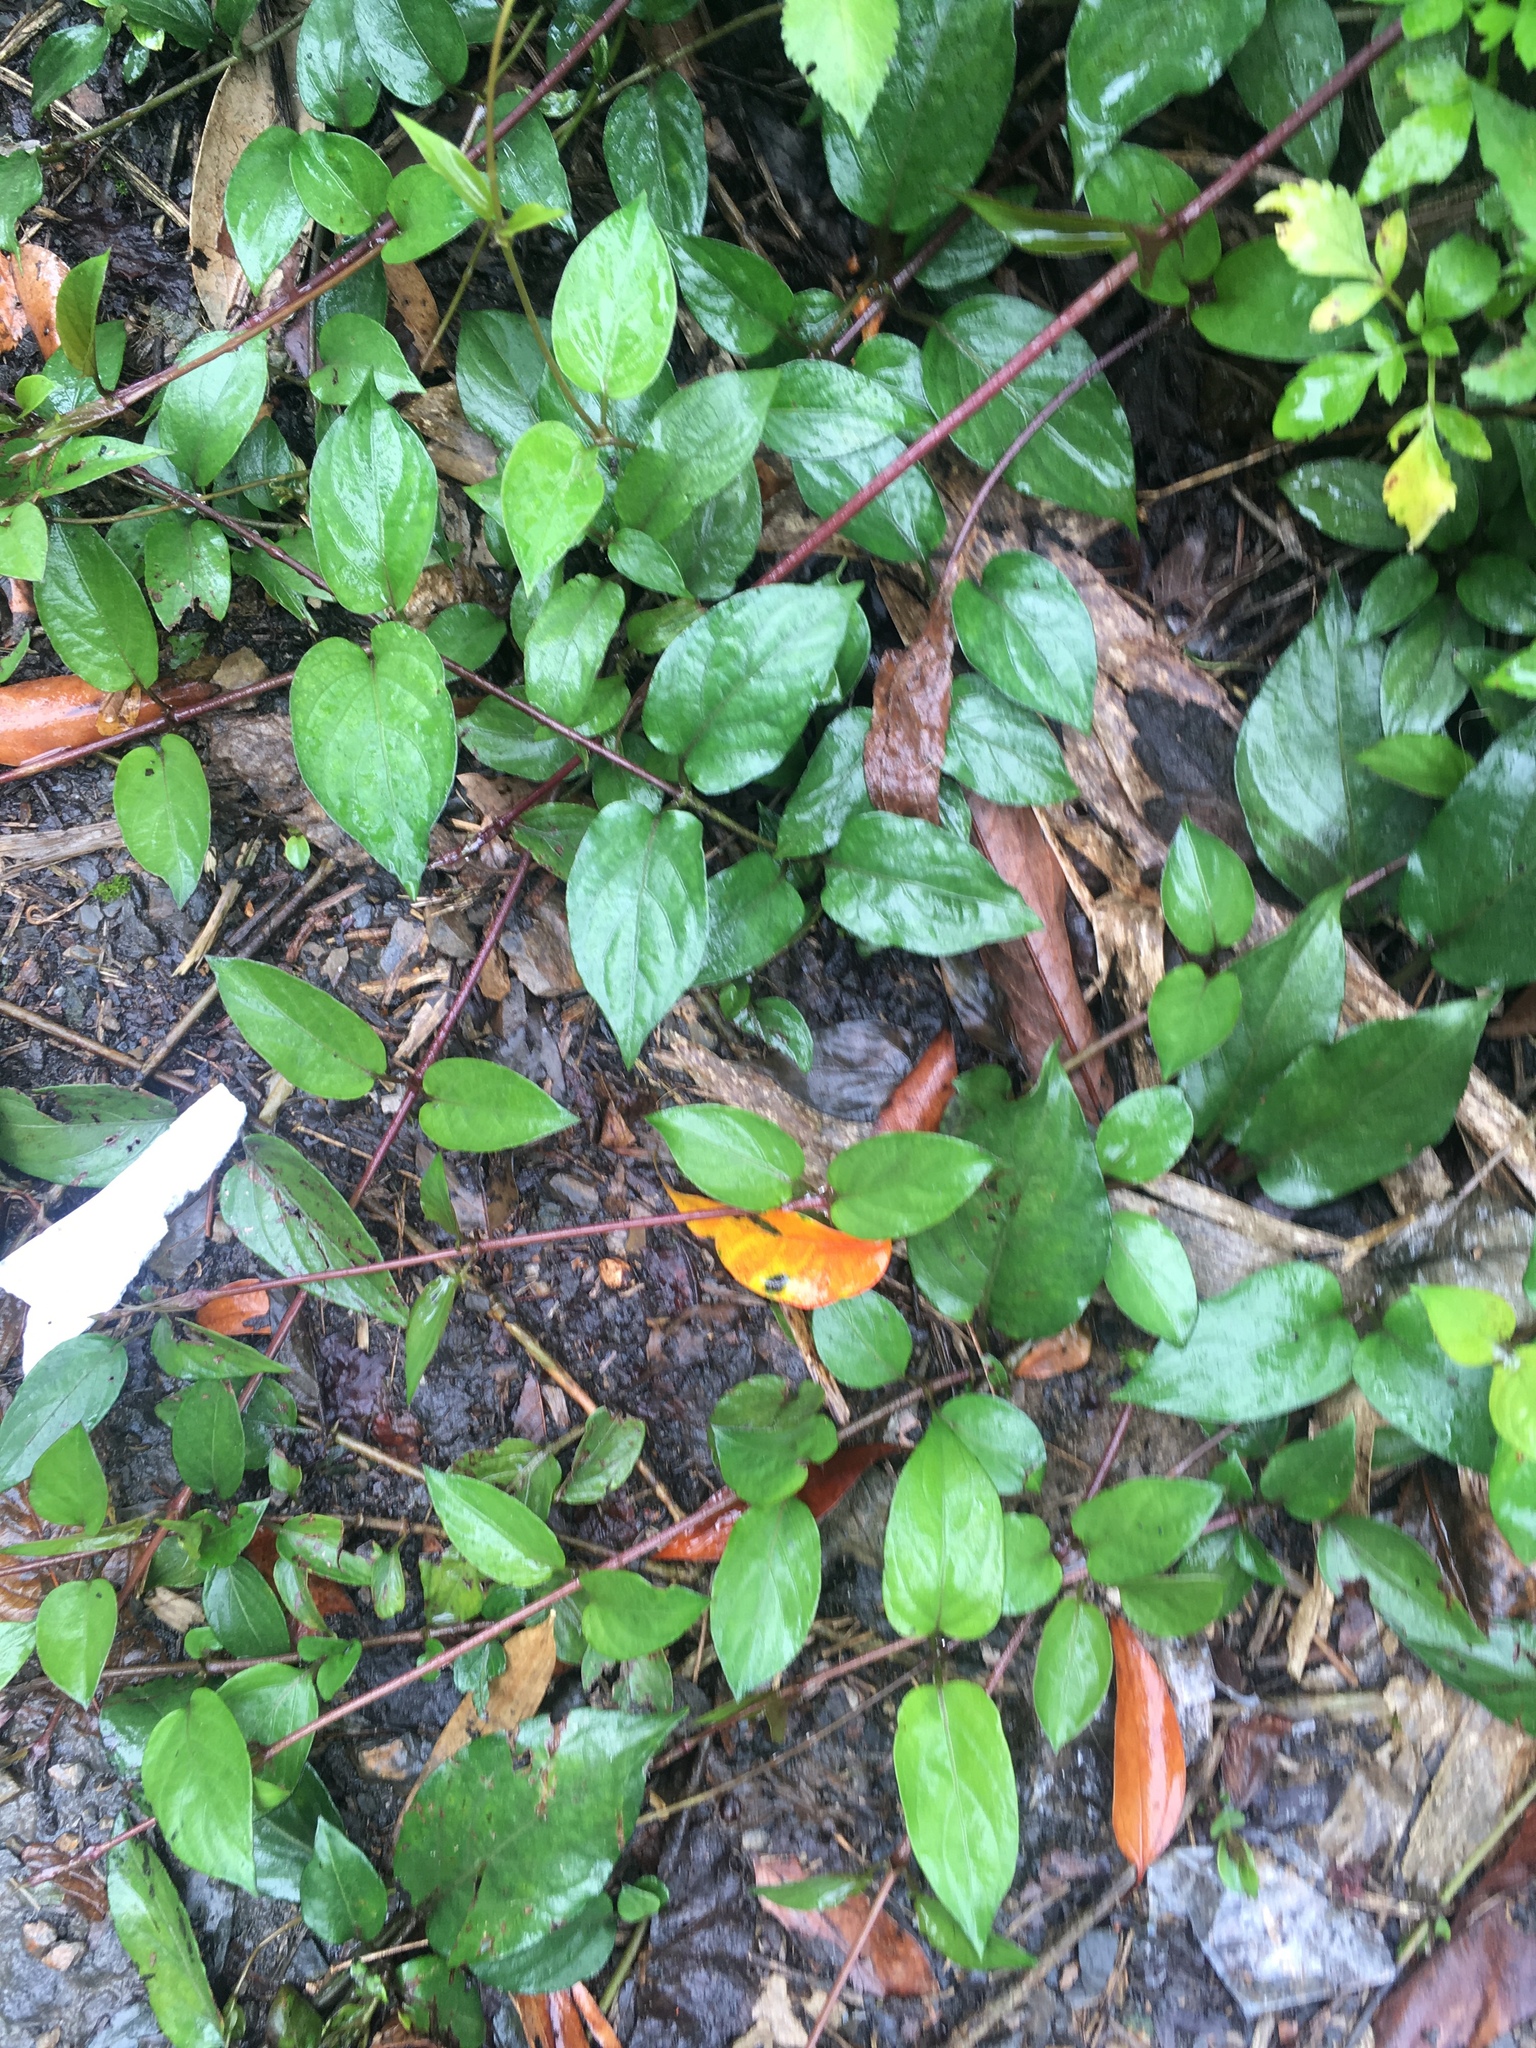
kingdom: Plantae
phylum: Tracheophyta
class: Magnoliopsida
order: Gentianales
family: Rubiaceae
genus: Paederia
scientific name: Paederia foetida
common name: Stinkvine
